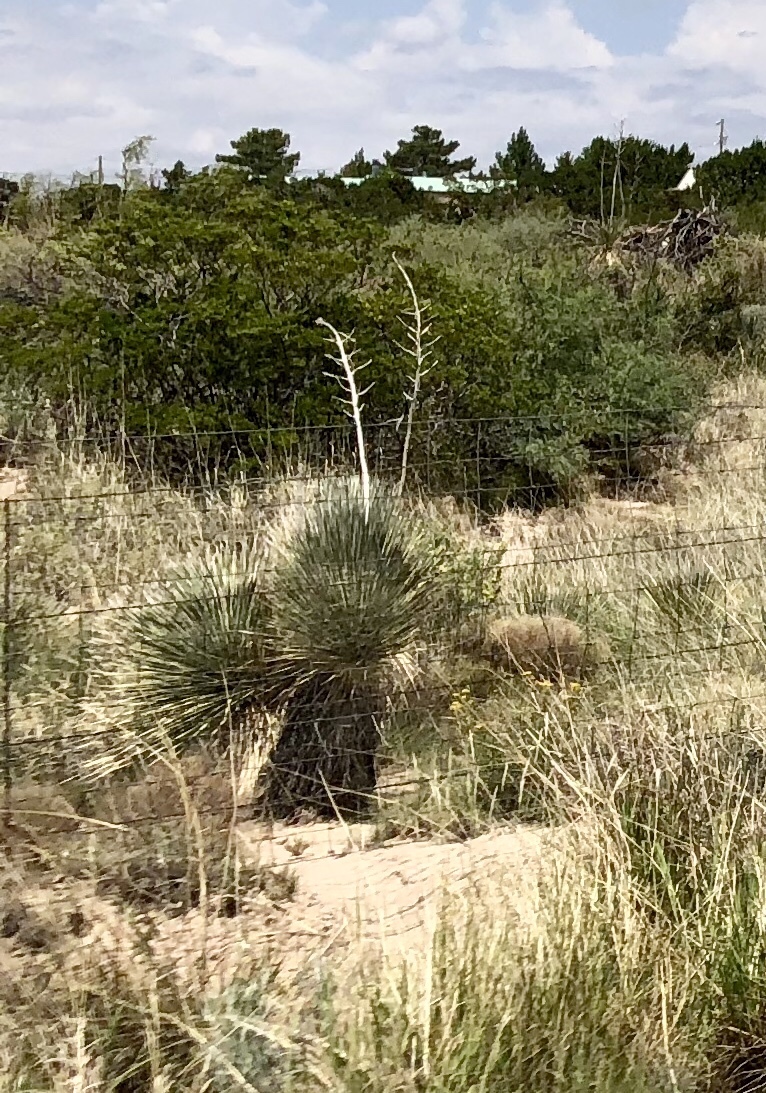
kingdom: Plantae
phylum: Tracheophyta
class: Liliopsida
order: Asparagales
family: Asparagaceae
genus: Yucca
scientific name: Yucca elata
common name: Palmella
